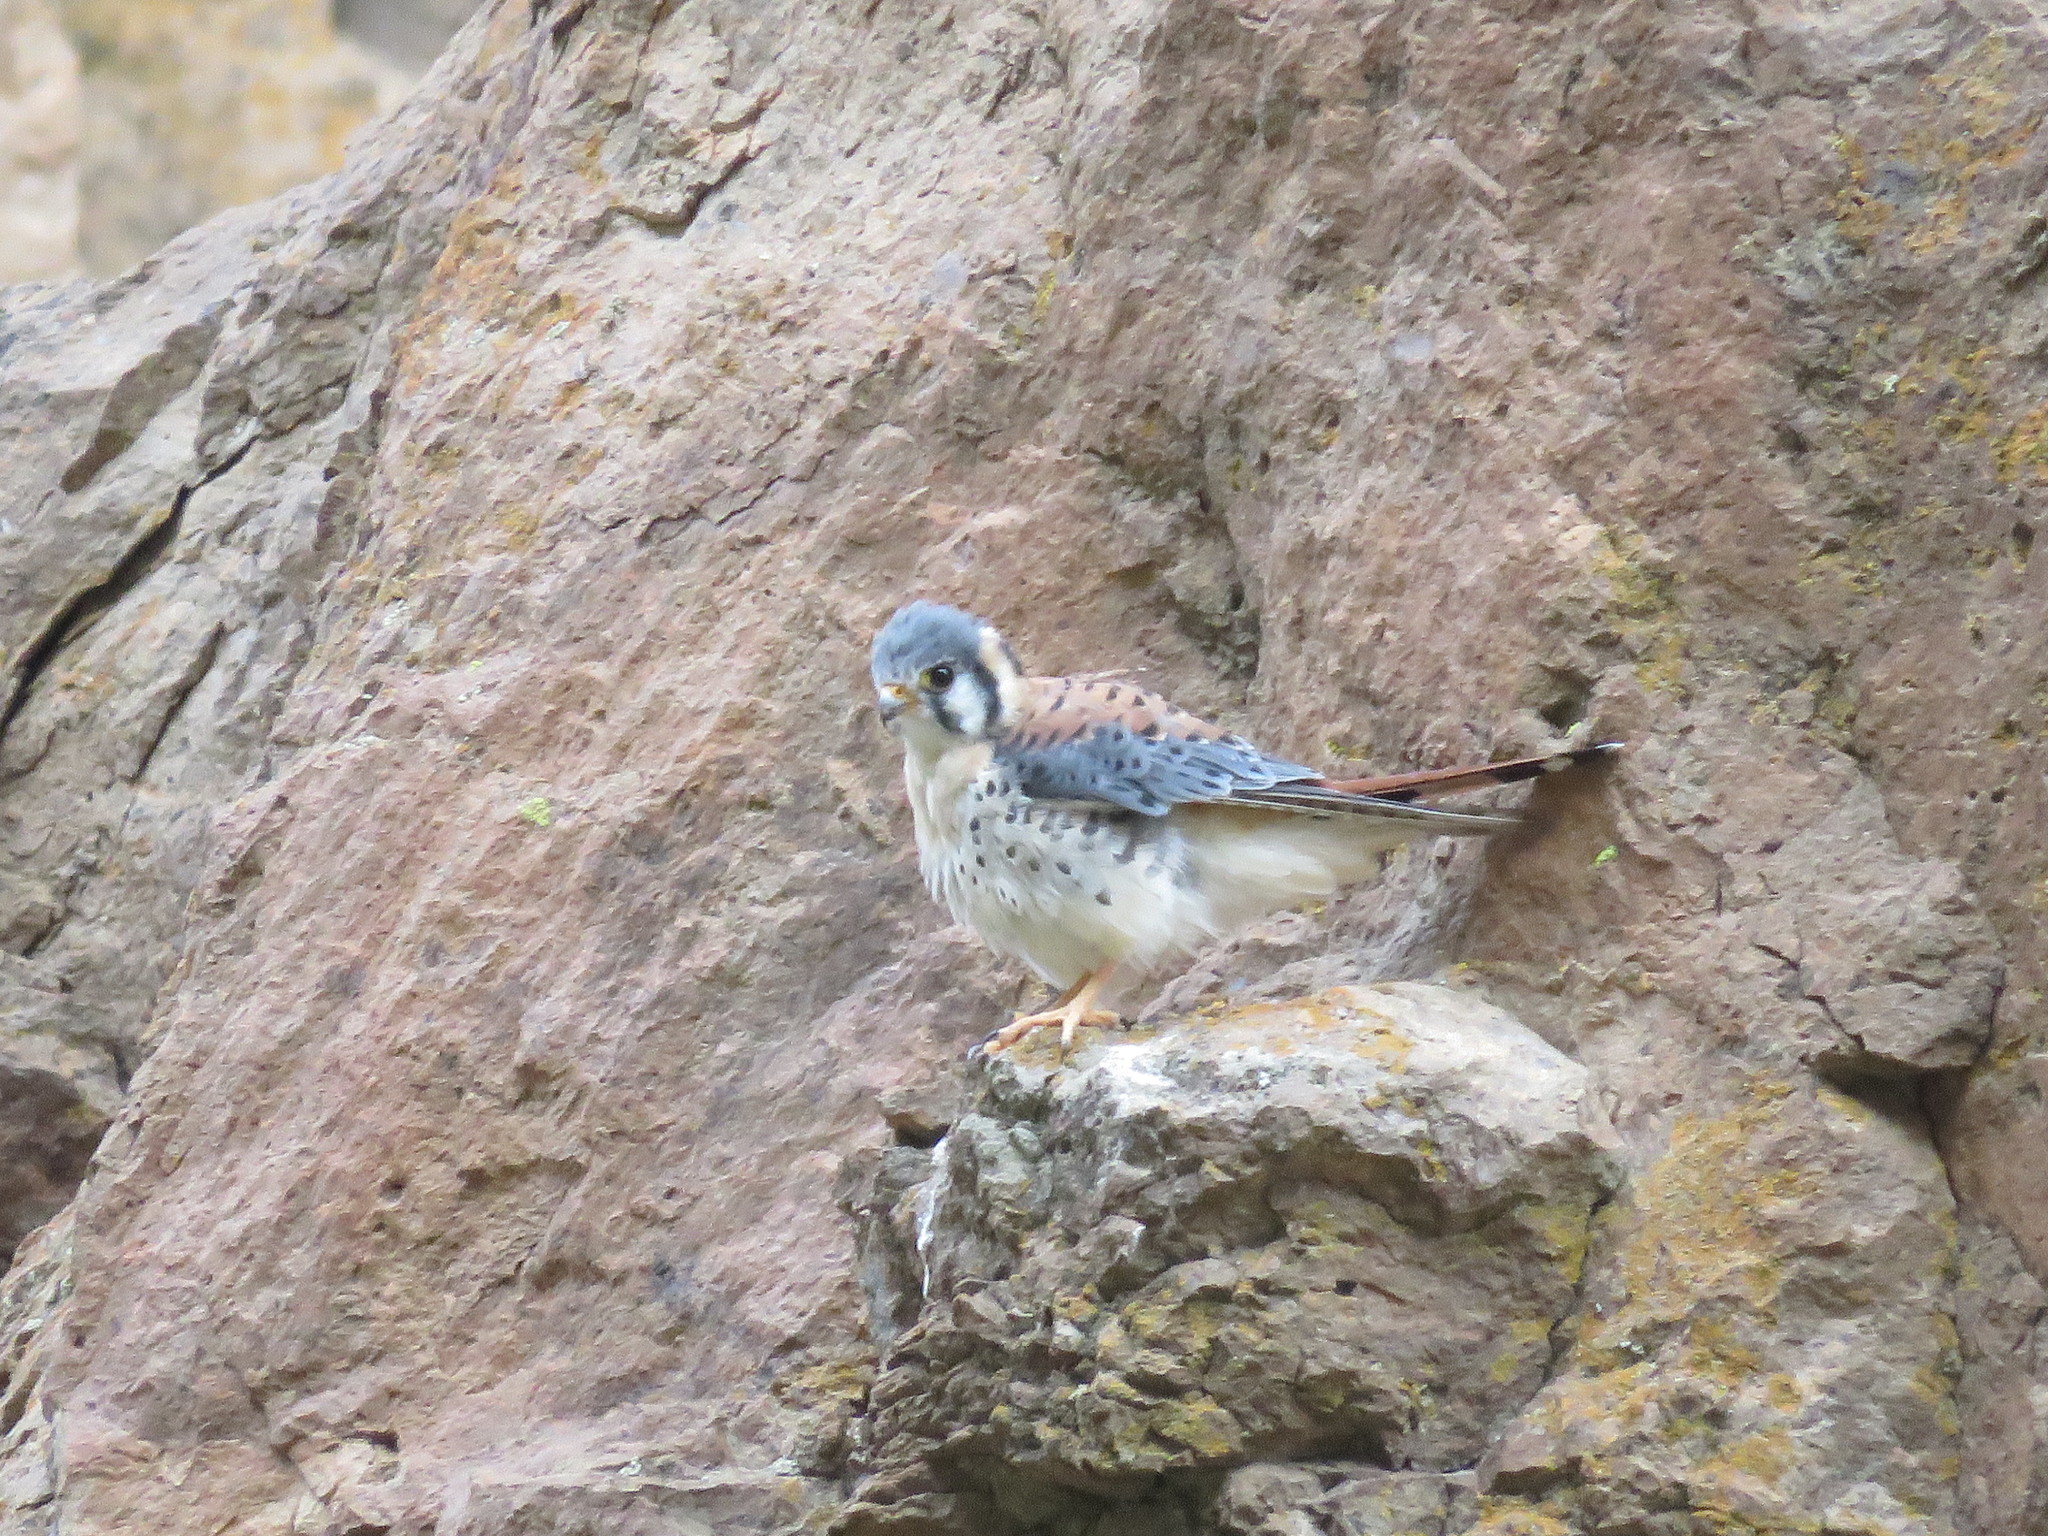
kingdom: Animalia
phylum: Chordata
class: Aves
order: Falconiformes
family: Falconidae
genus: Falco
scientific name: Falco sparverius
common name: American kestrel
